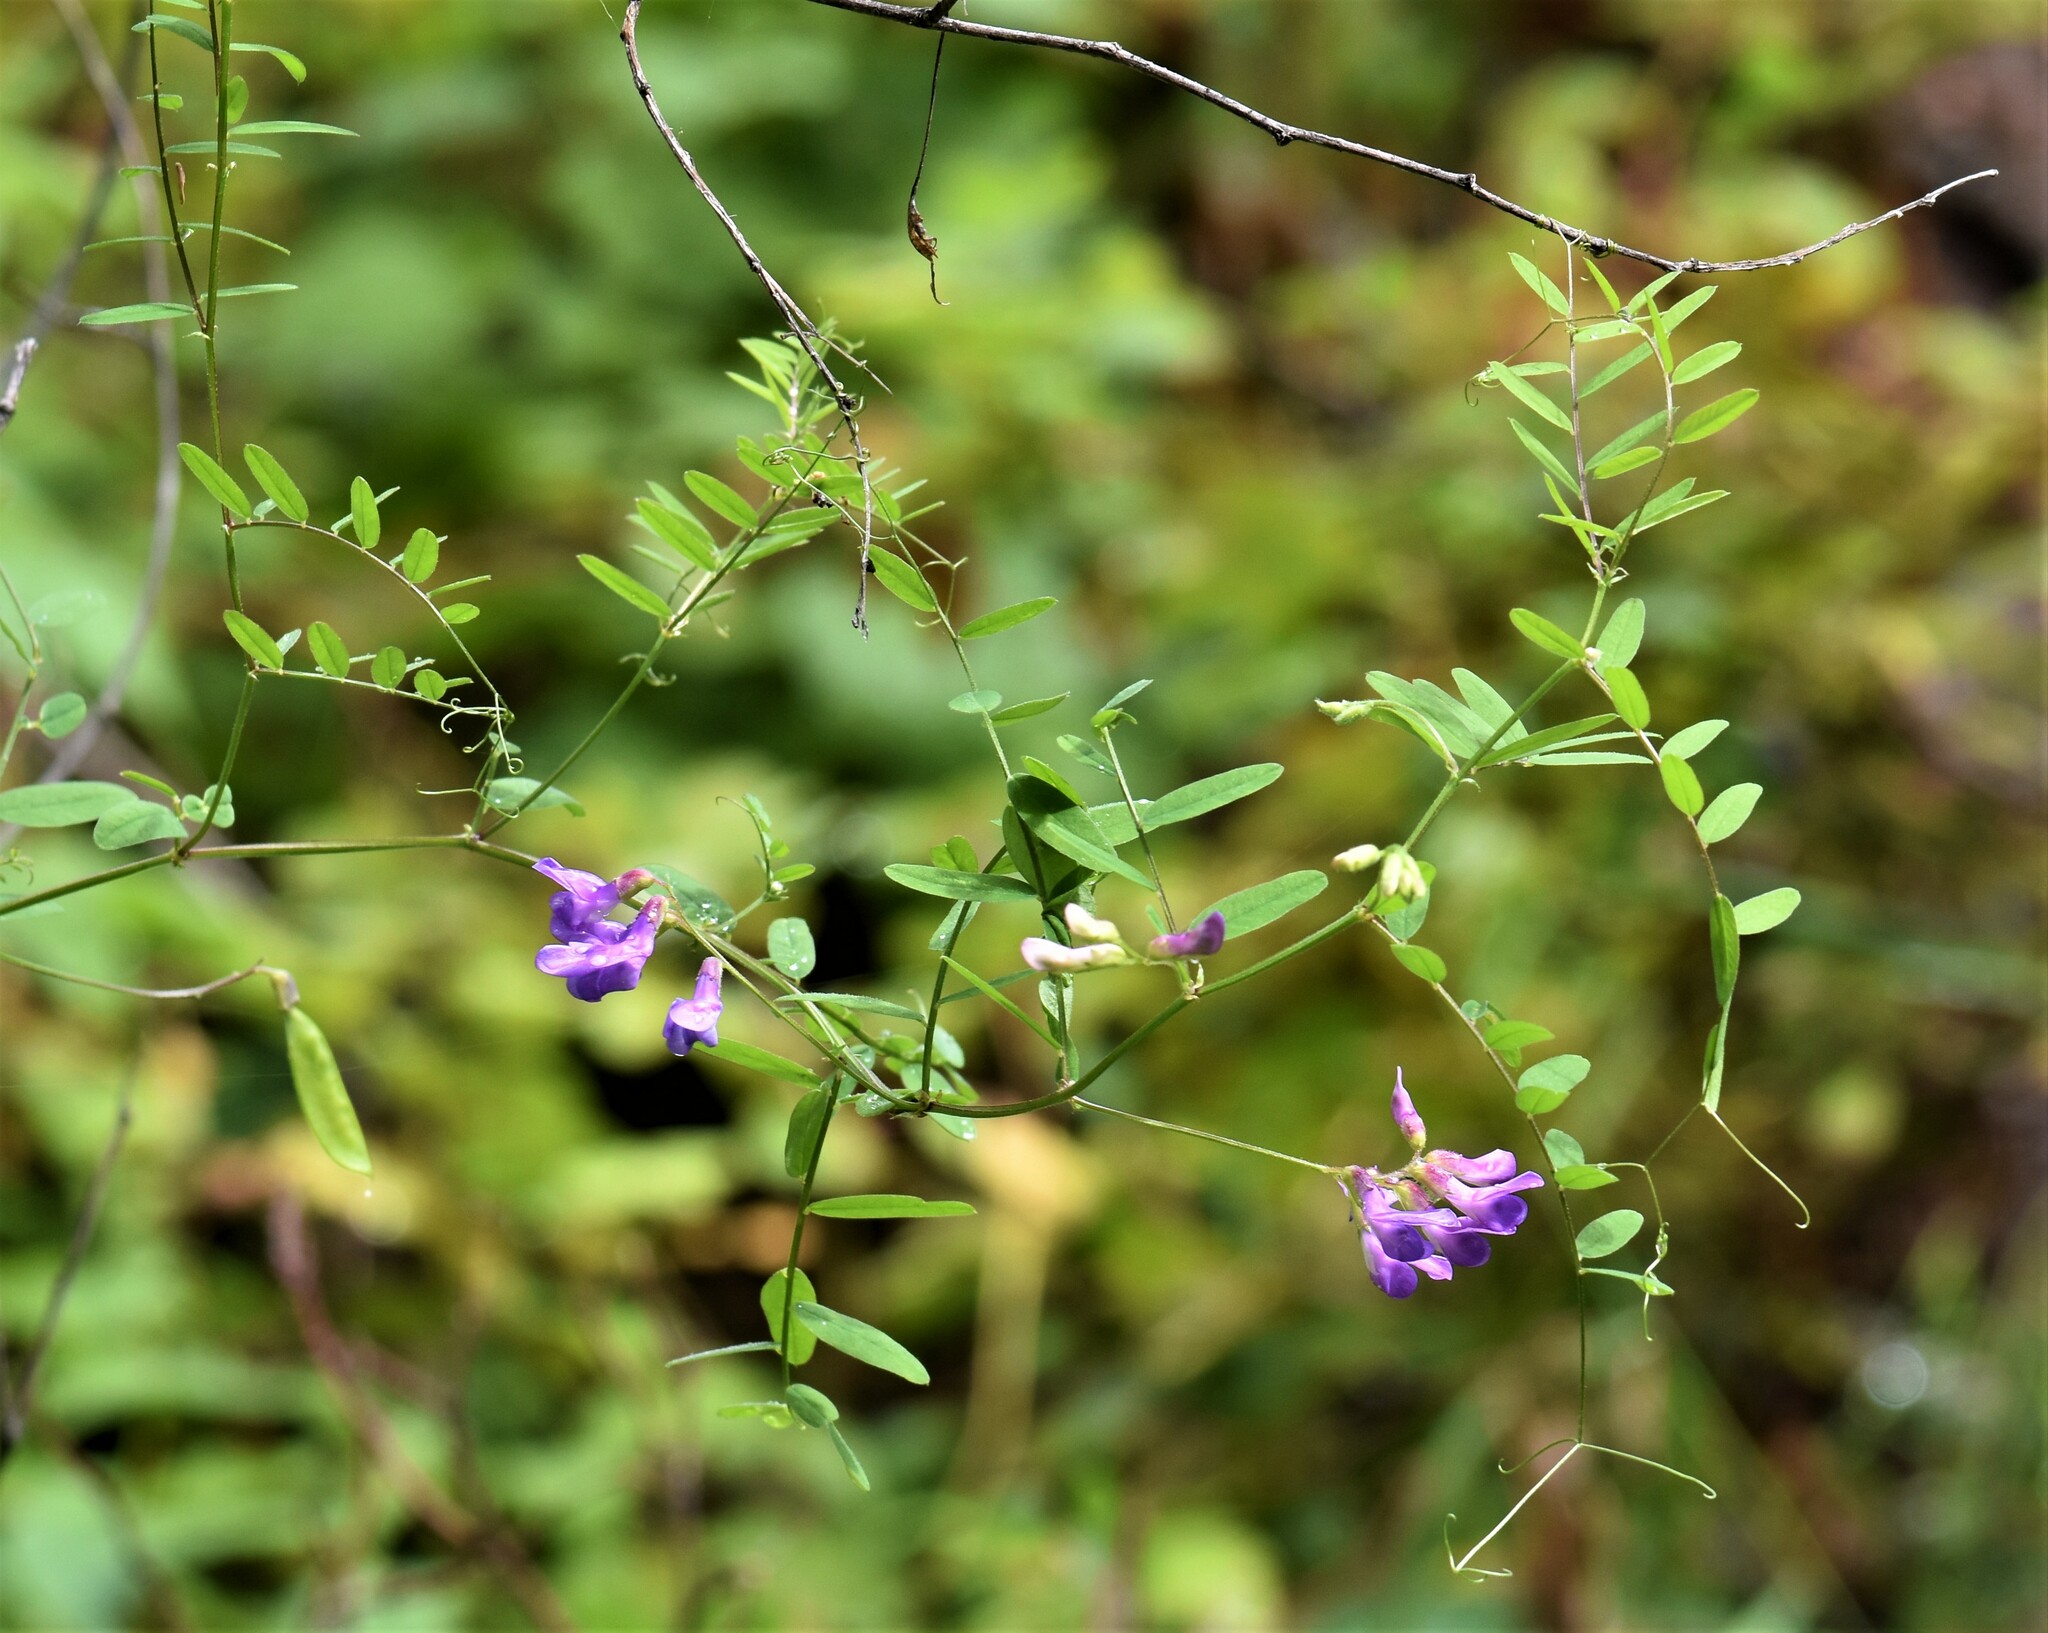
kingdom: Plantae
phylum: Tracheophyta
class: Magnoliopsida
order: Fabales
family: Fabaceae
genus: Vicia
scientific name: Vicia americana
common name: American vetch
